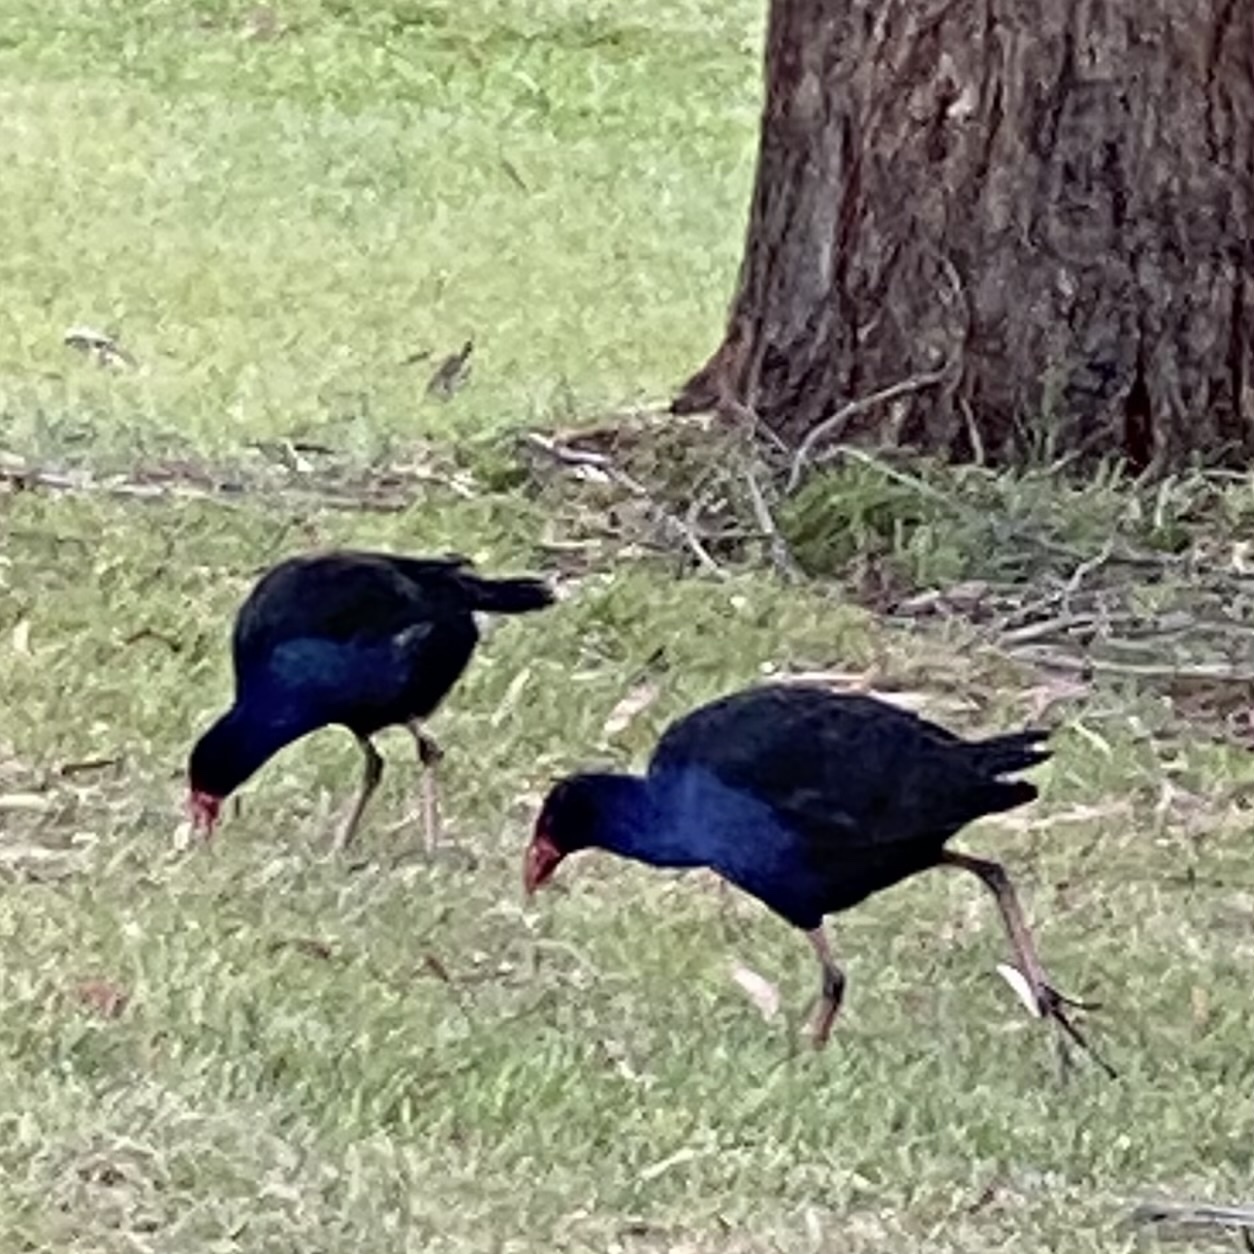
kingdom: Animalia
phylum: Chordata
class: Aves
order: Gruiformes
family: Rallidae
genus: Porphyrio
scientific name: Porphyrio melanotus
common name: Australasian swamphen
